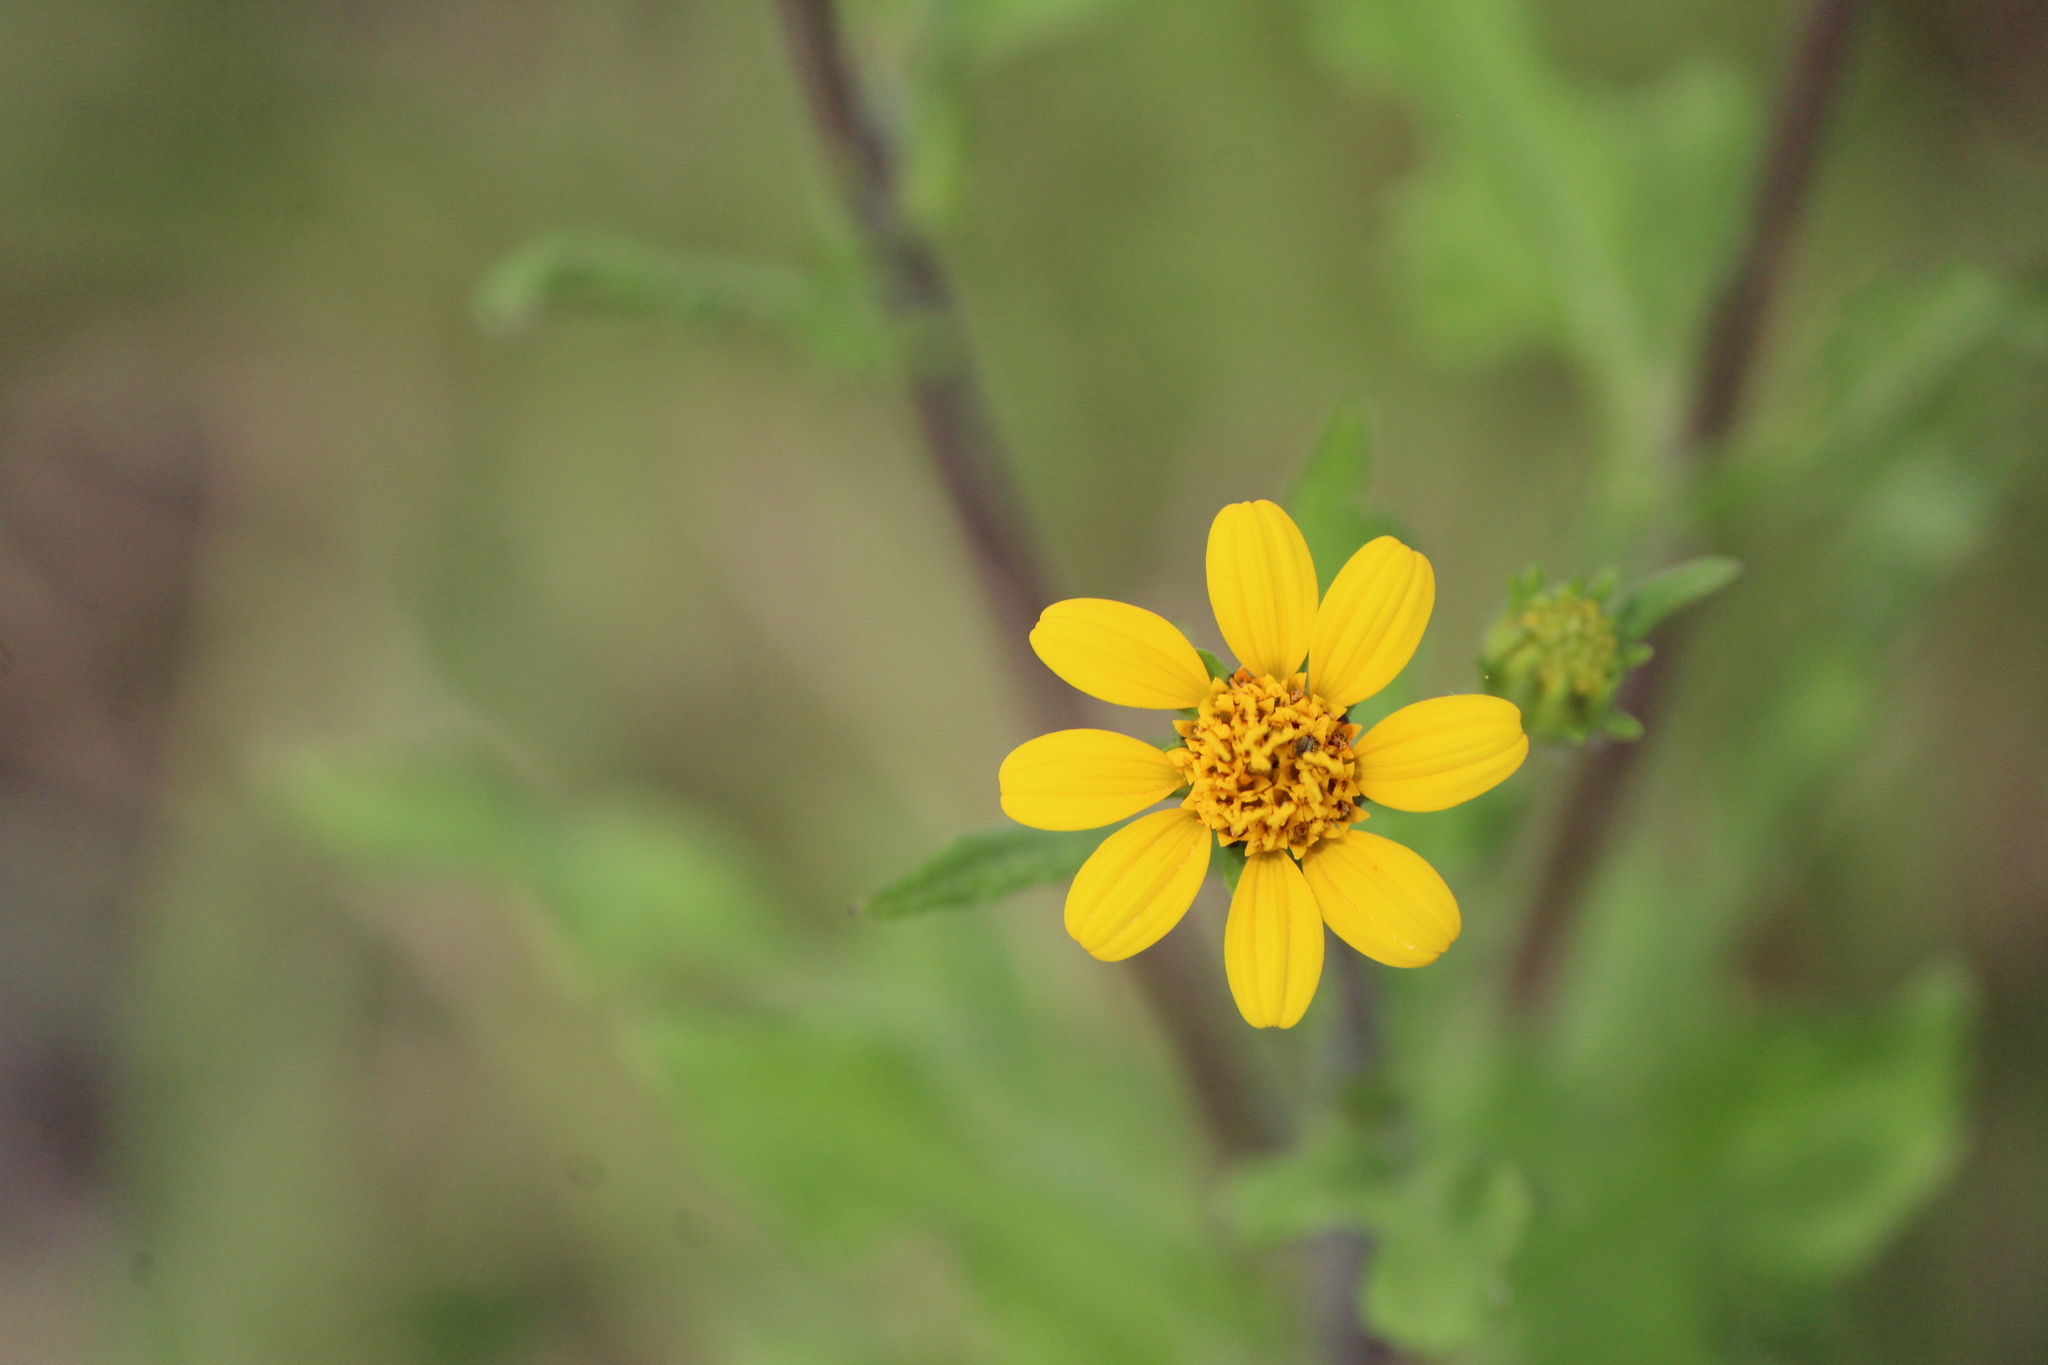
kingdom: Plantae
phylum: Tracheophyta
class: Magnoliopsida
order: Asterales
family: Asteraceae
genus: Simsia
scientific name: Simsia amplexicaulis
